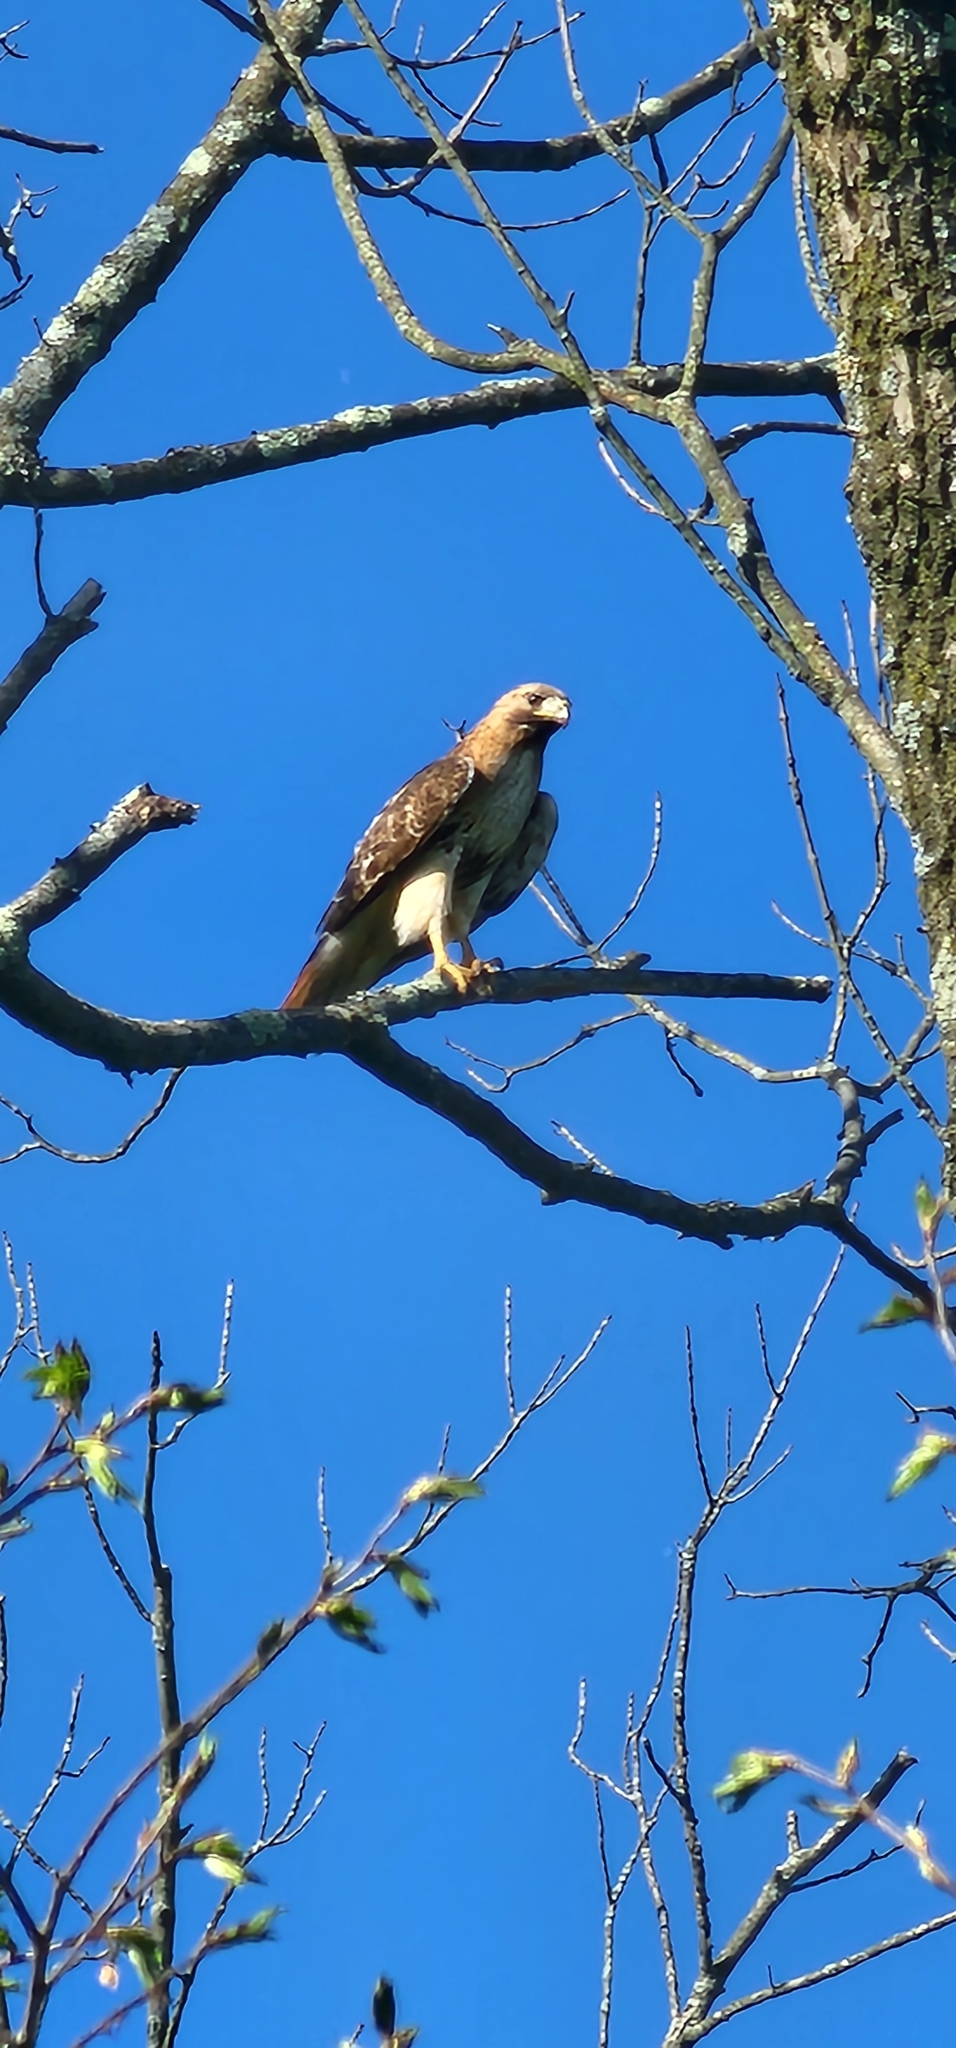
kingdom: Animalia
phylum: Chordata
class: Aves
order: Accipitriformes
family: Accipitridae
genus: Buteo
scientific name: Buteo jamaicensis
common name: Red-tailed hawk
